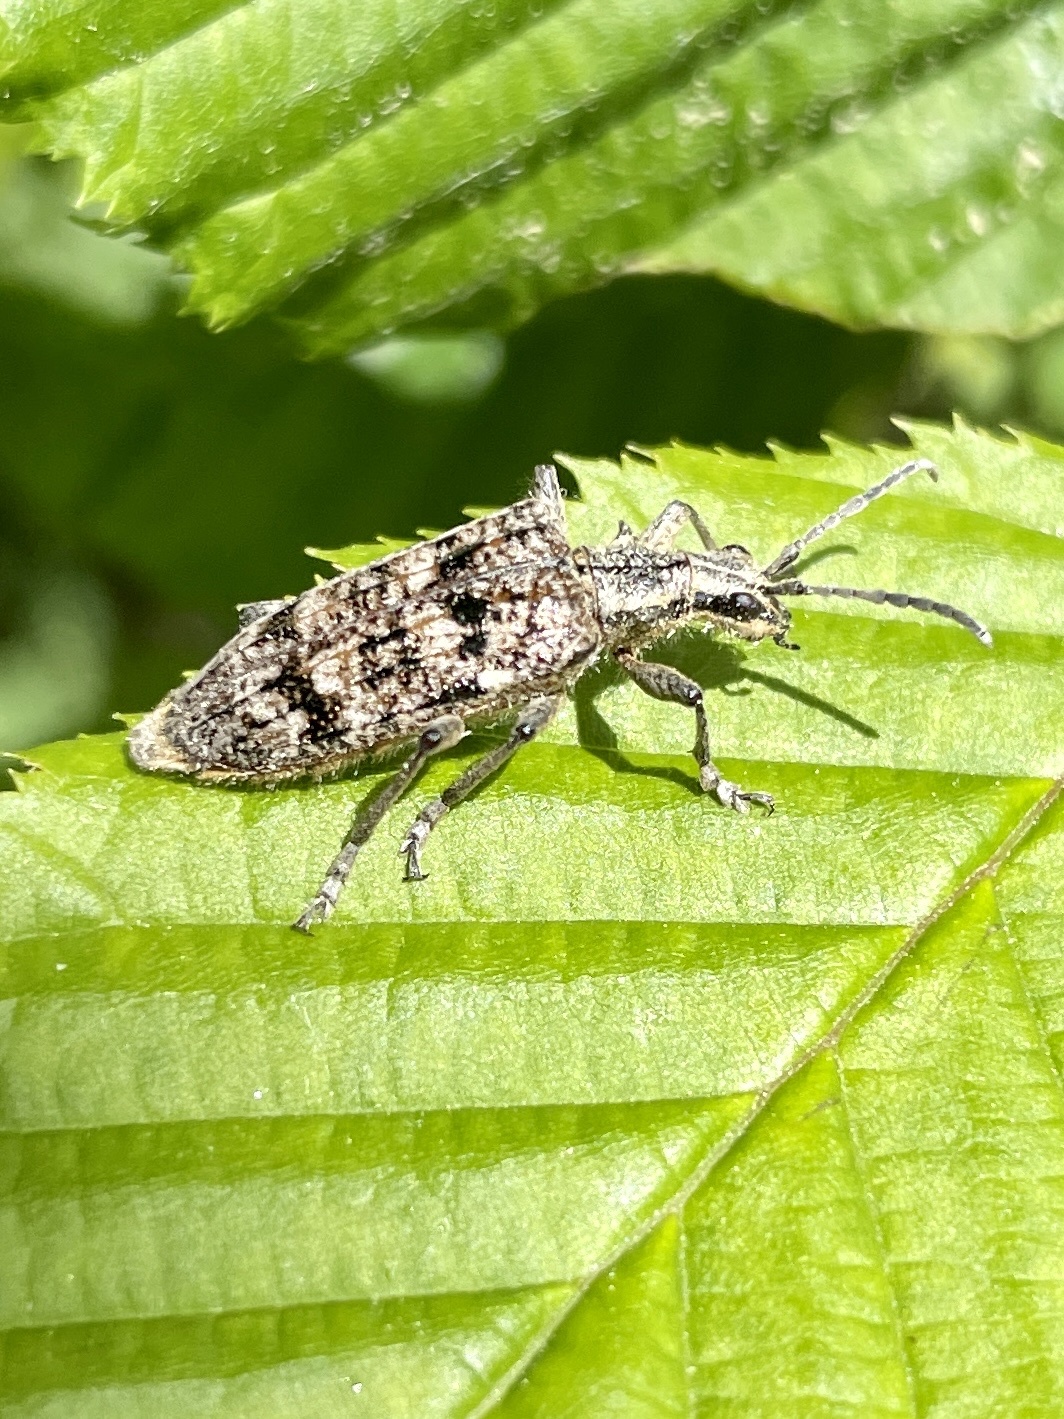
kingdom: Animalia
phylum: Arthropoda
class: Insecta
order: Coleoptera
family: Cerambycidae
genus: Rhagium
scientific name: Rhagium inquisitor
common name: Ribbed pine borer
